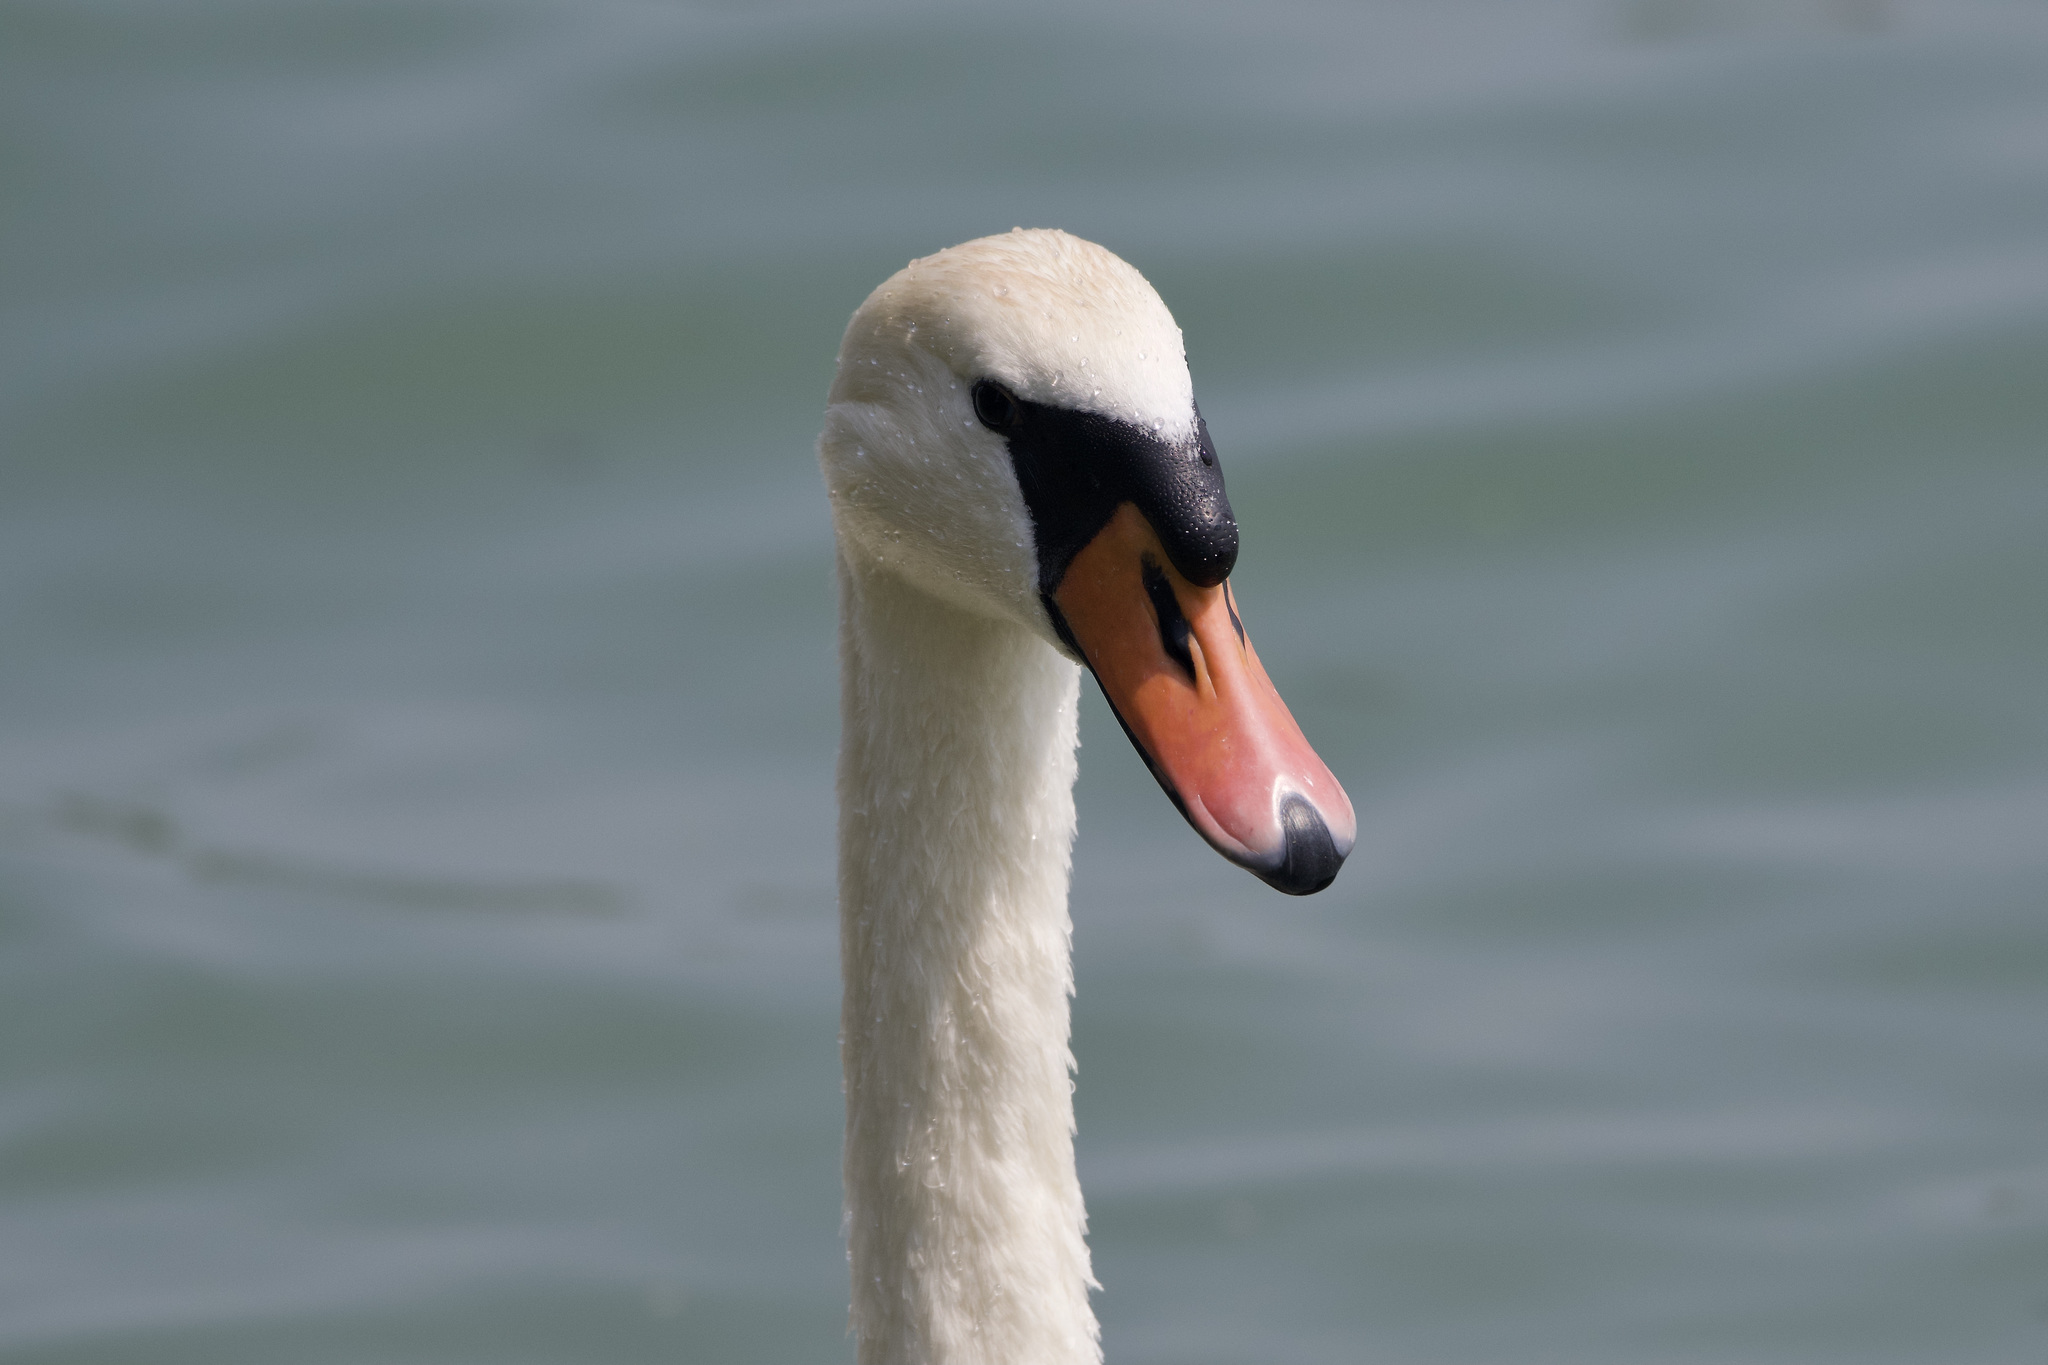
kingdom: Animalia
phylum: Chordata
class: Aves
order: Anseriformes
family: Anatidae
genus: Cygnus
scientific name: Cygnus olor
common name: Mute swan
